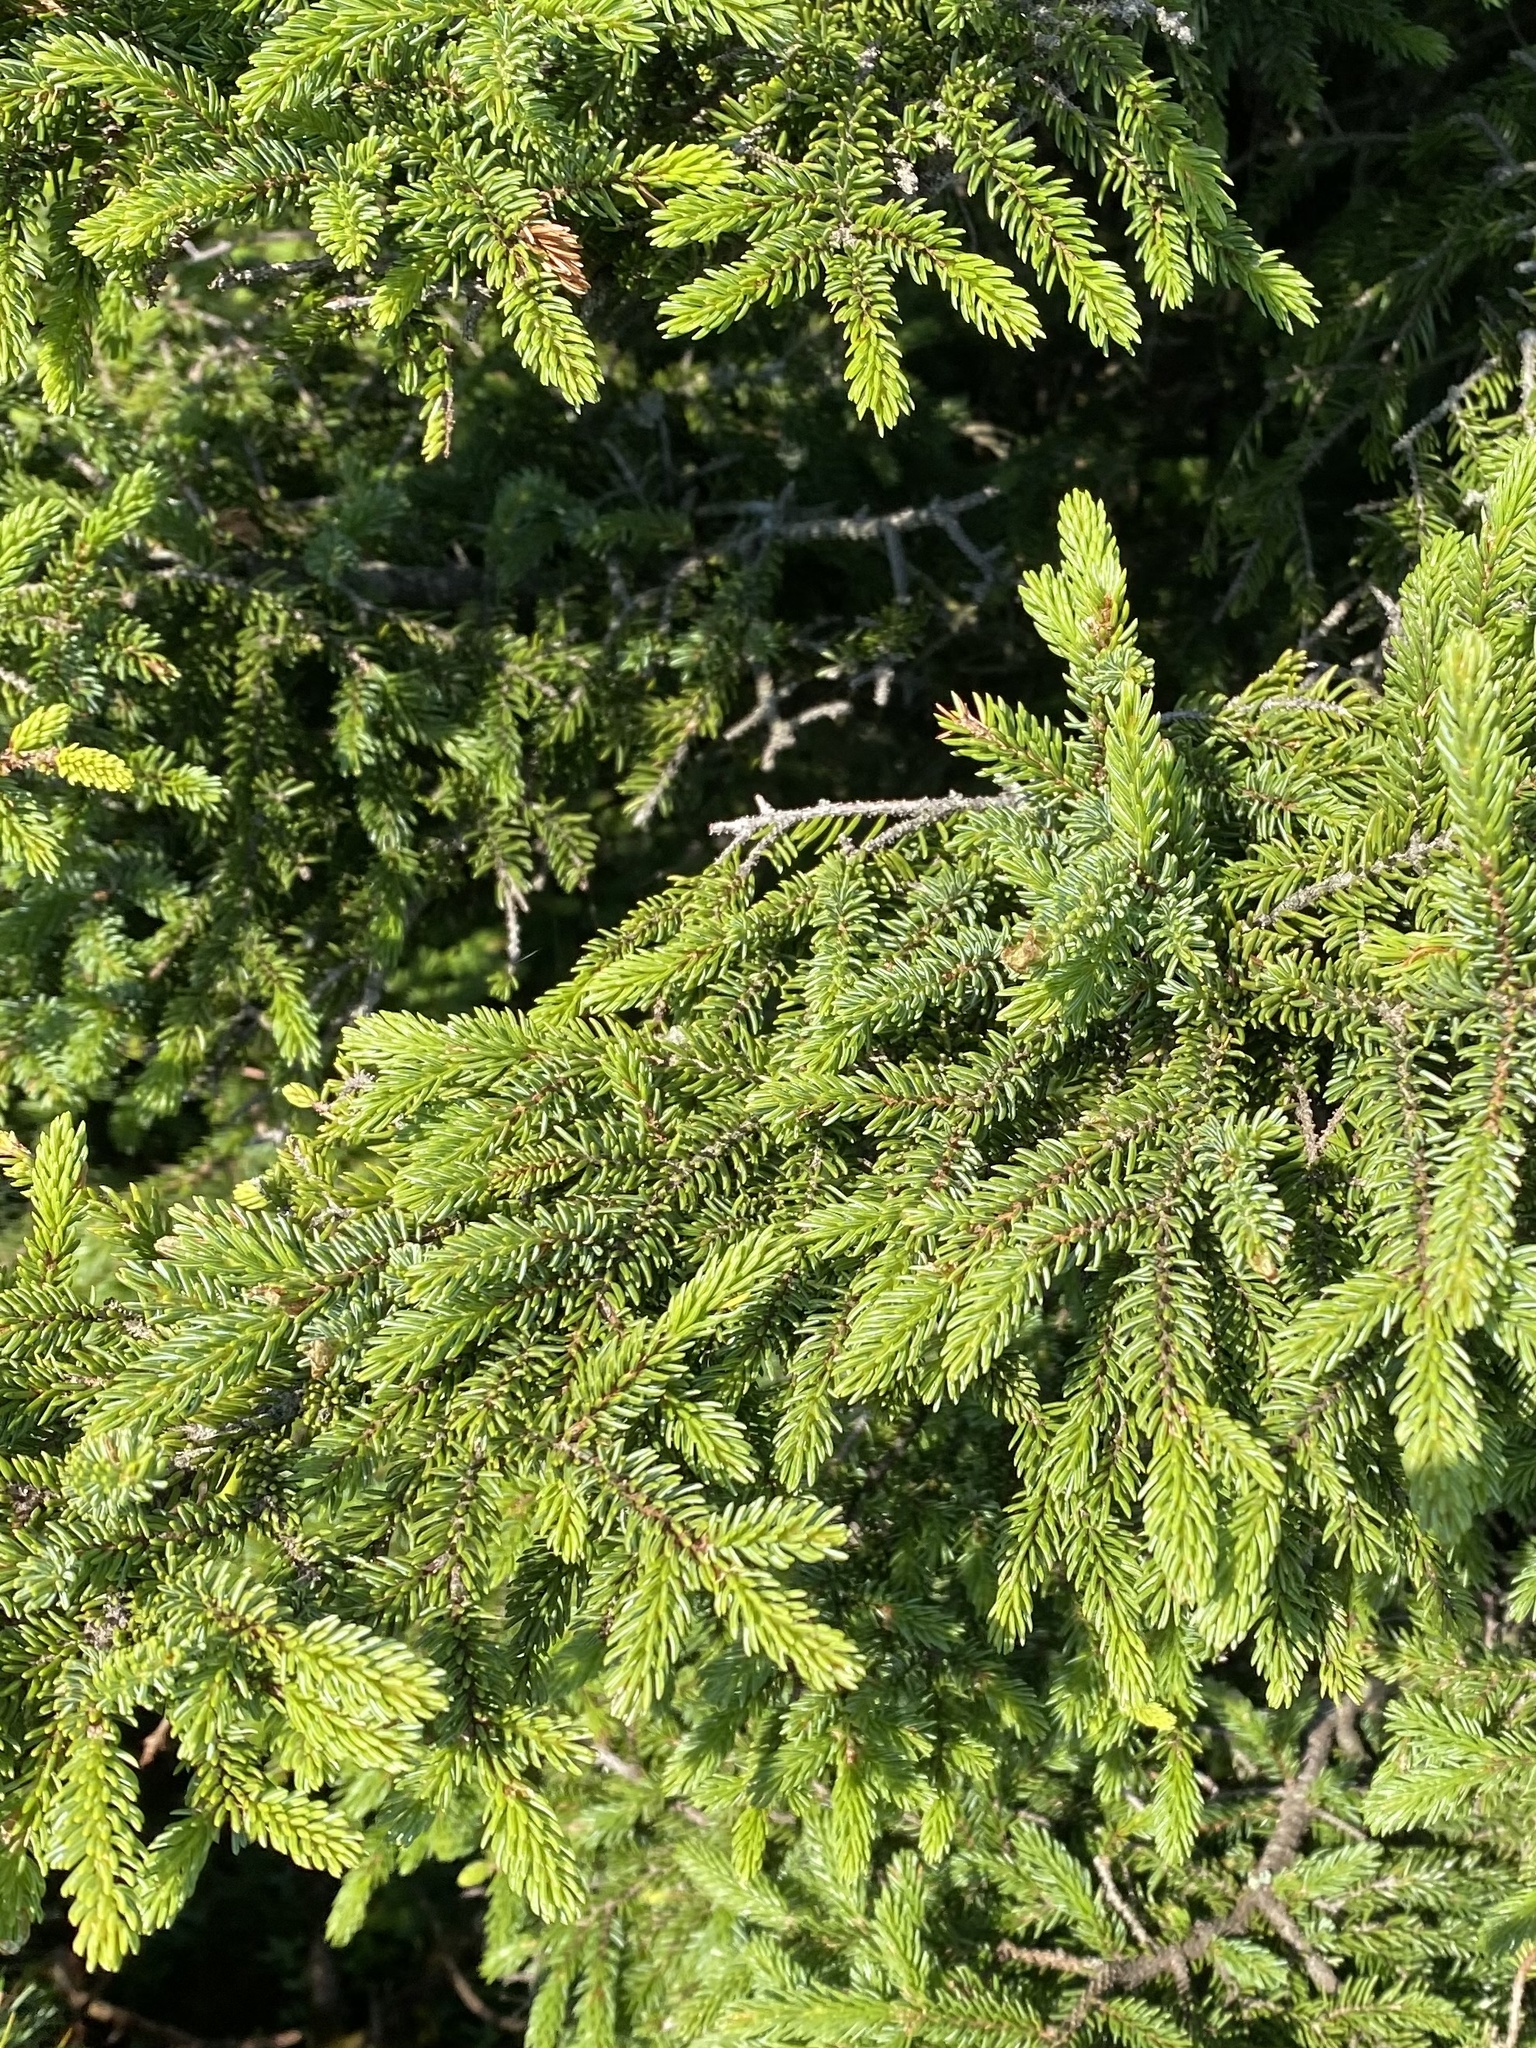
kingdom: Plantae
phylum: Tracheophyta
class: Pinopsida
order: Pinales
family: Pinaceae
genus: Picea
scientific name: Picea jezoensis
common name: Yeddo spruce
